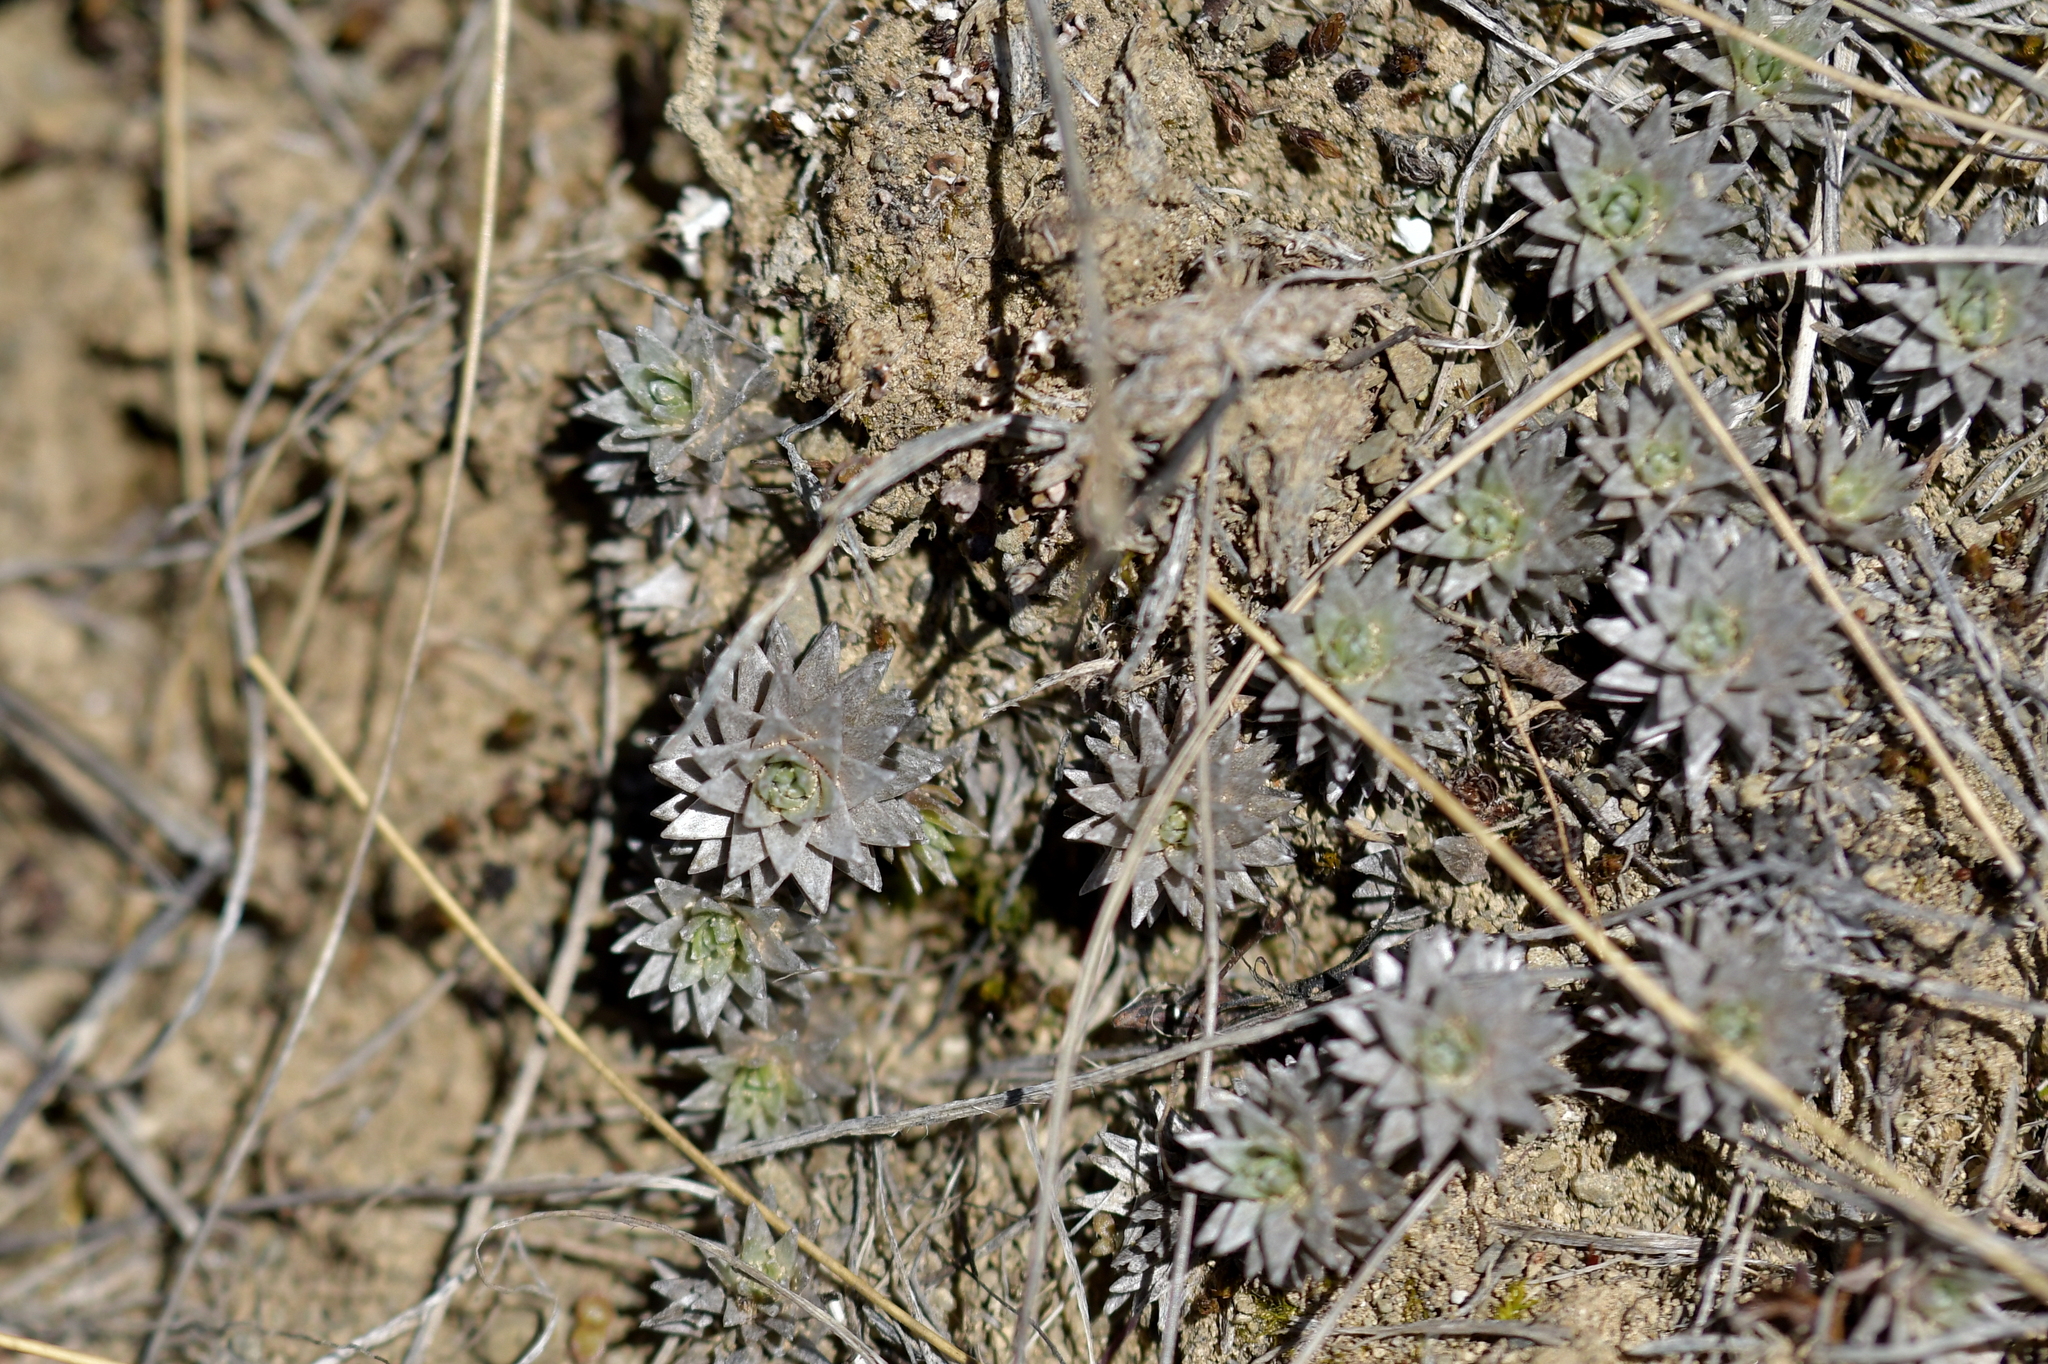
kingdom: Plantae
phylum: Tracheophyta
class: Magnoliopsida
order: Asterales
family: Asteraceae
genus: Raoulia
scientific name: Raoulia grandiflora
